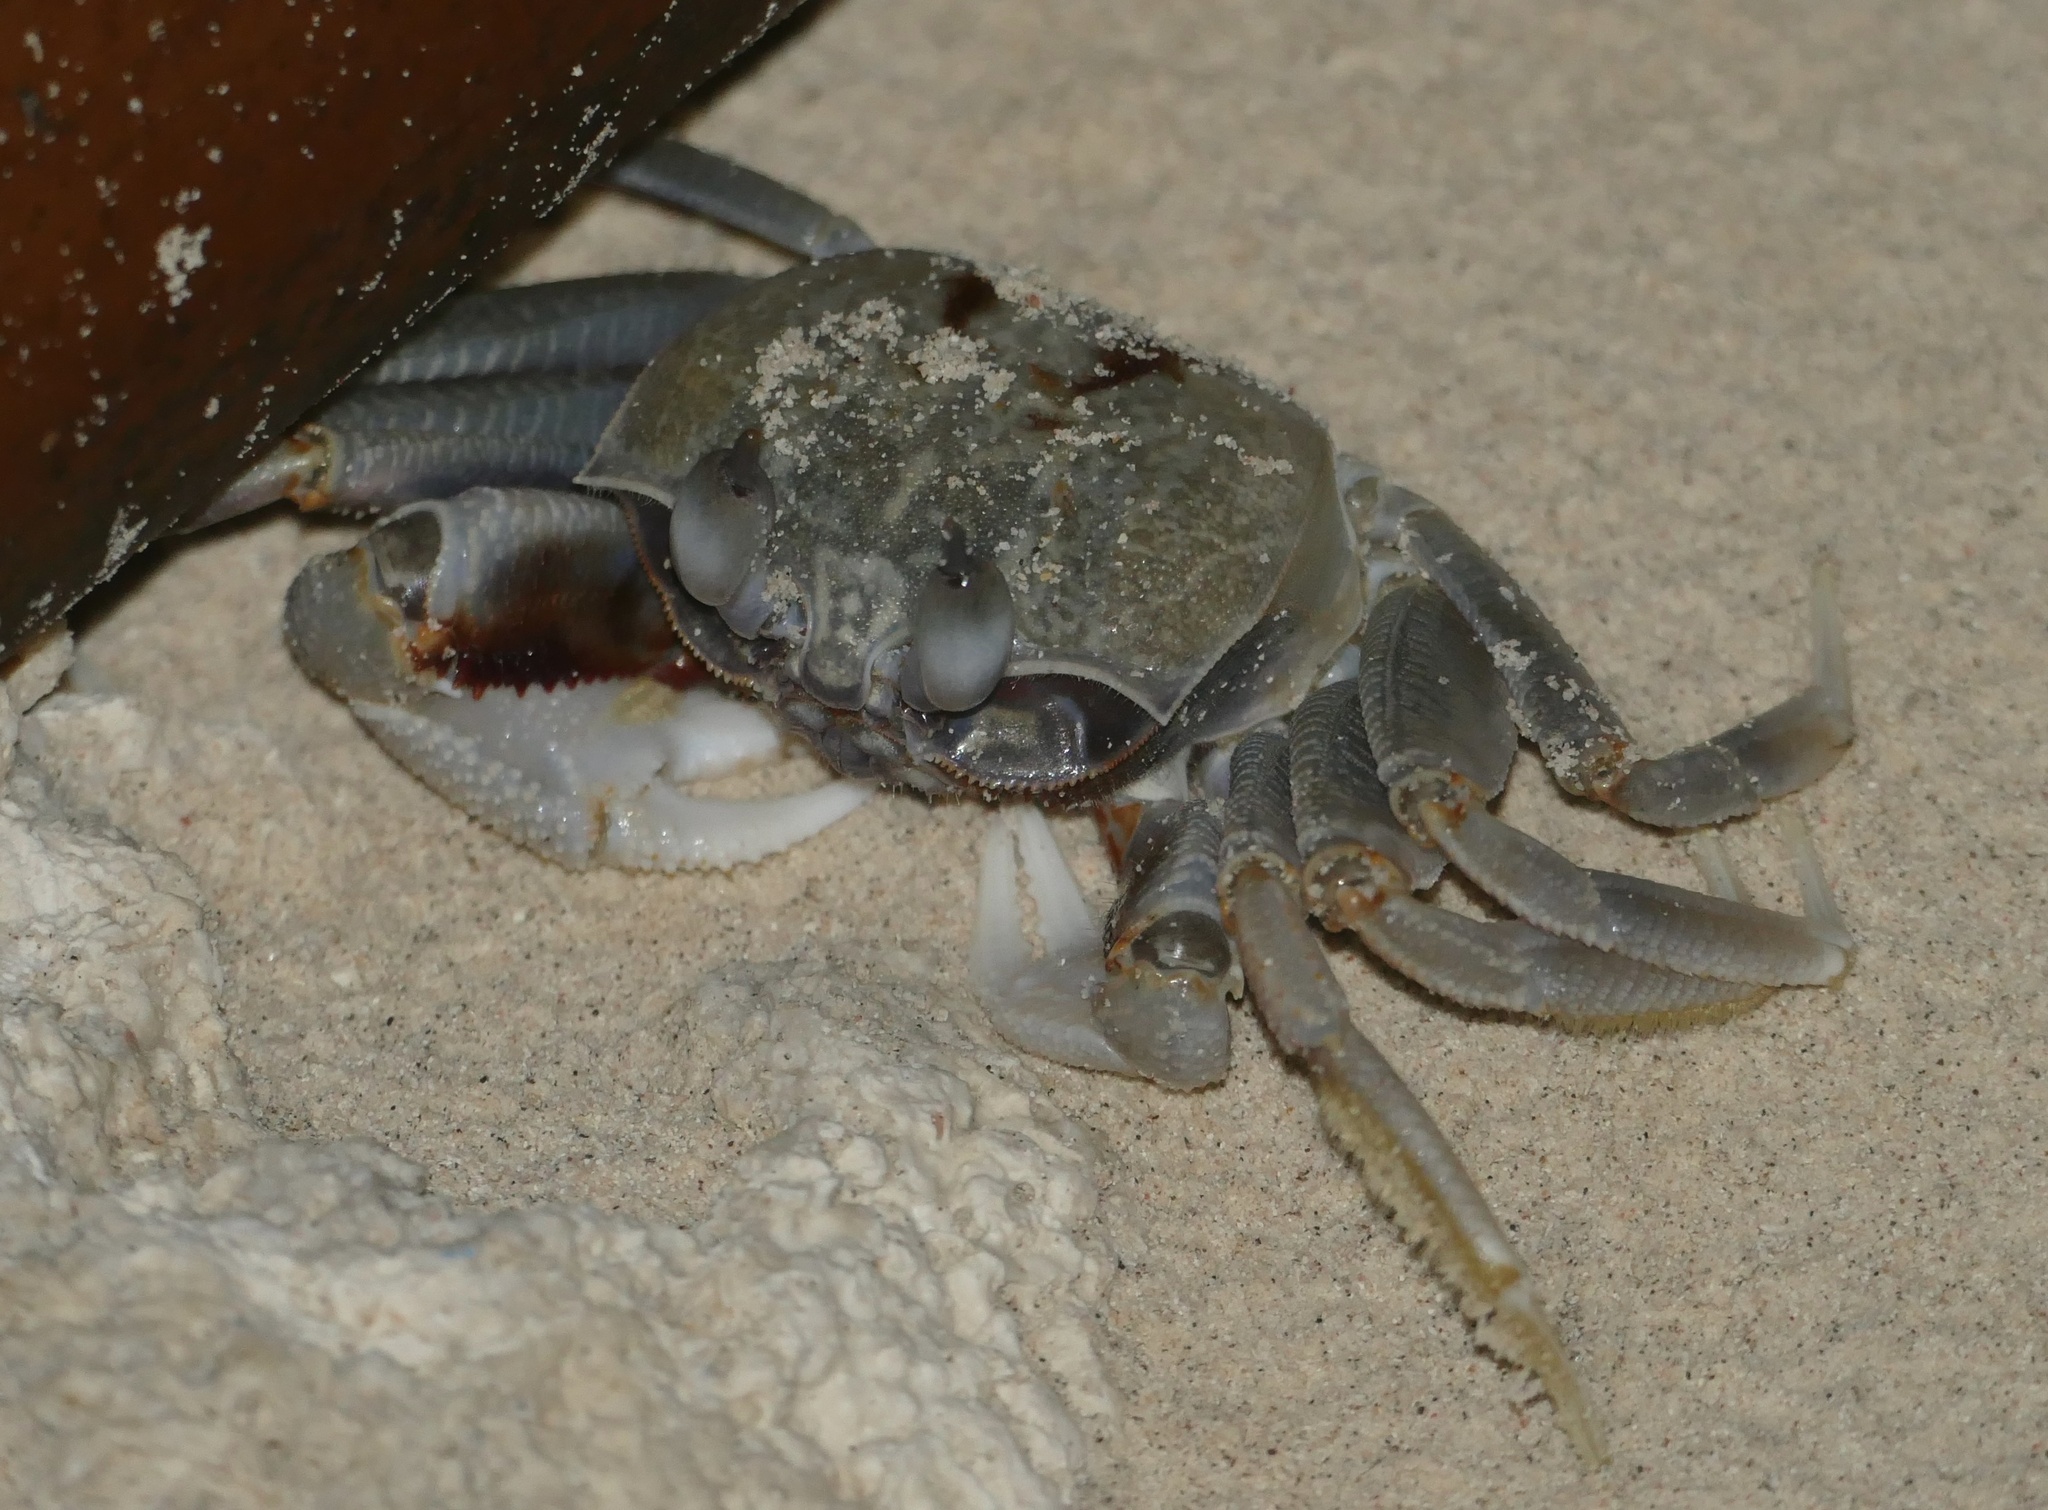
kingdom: Animalia
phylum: Arthropoda
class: Malacostraca
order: Decapoda
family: Ocypodidae
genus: Ocypode
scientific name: Ocypode ceratophthalmus
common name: Indo-pacific ghost crab
